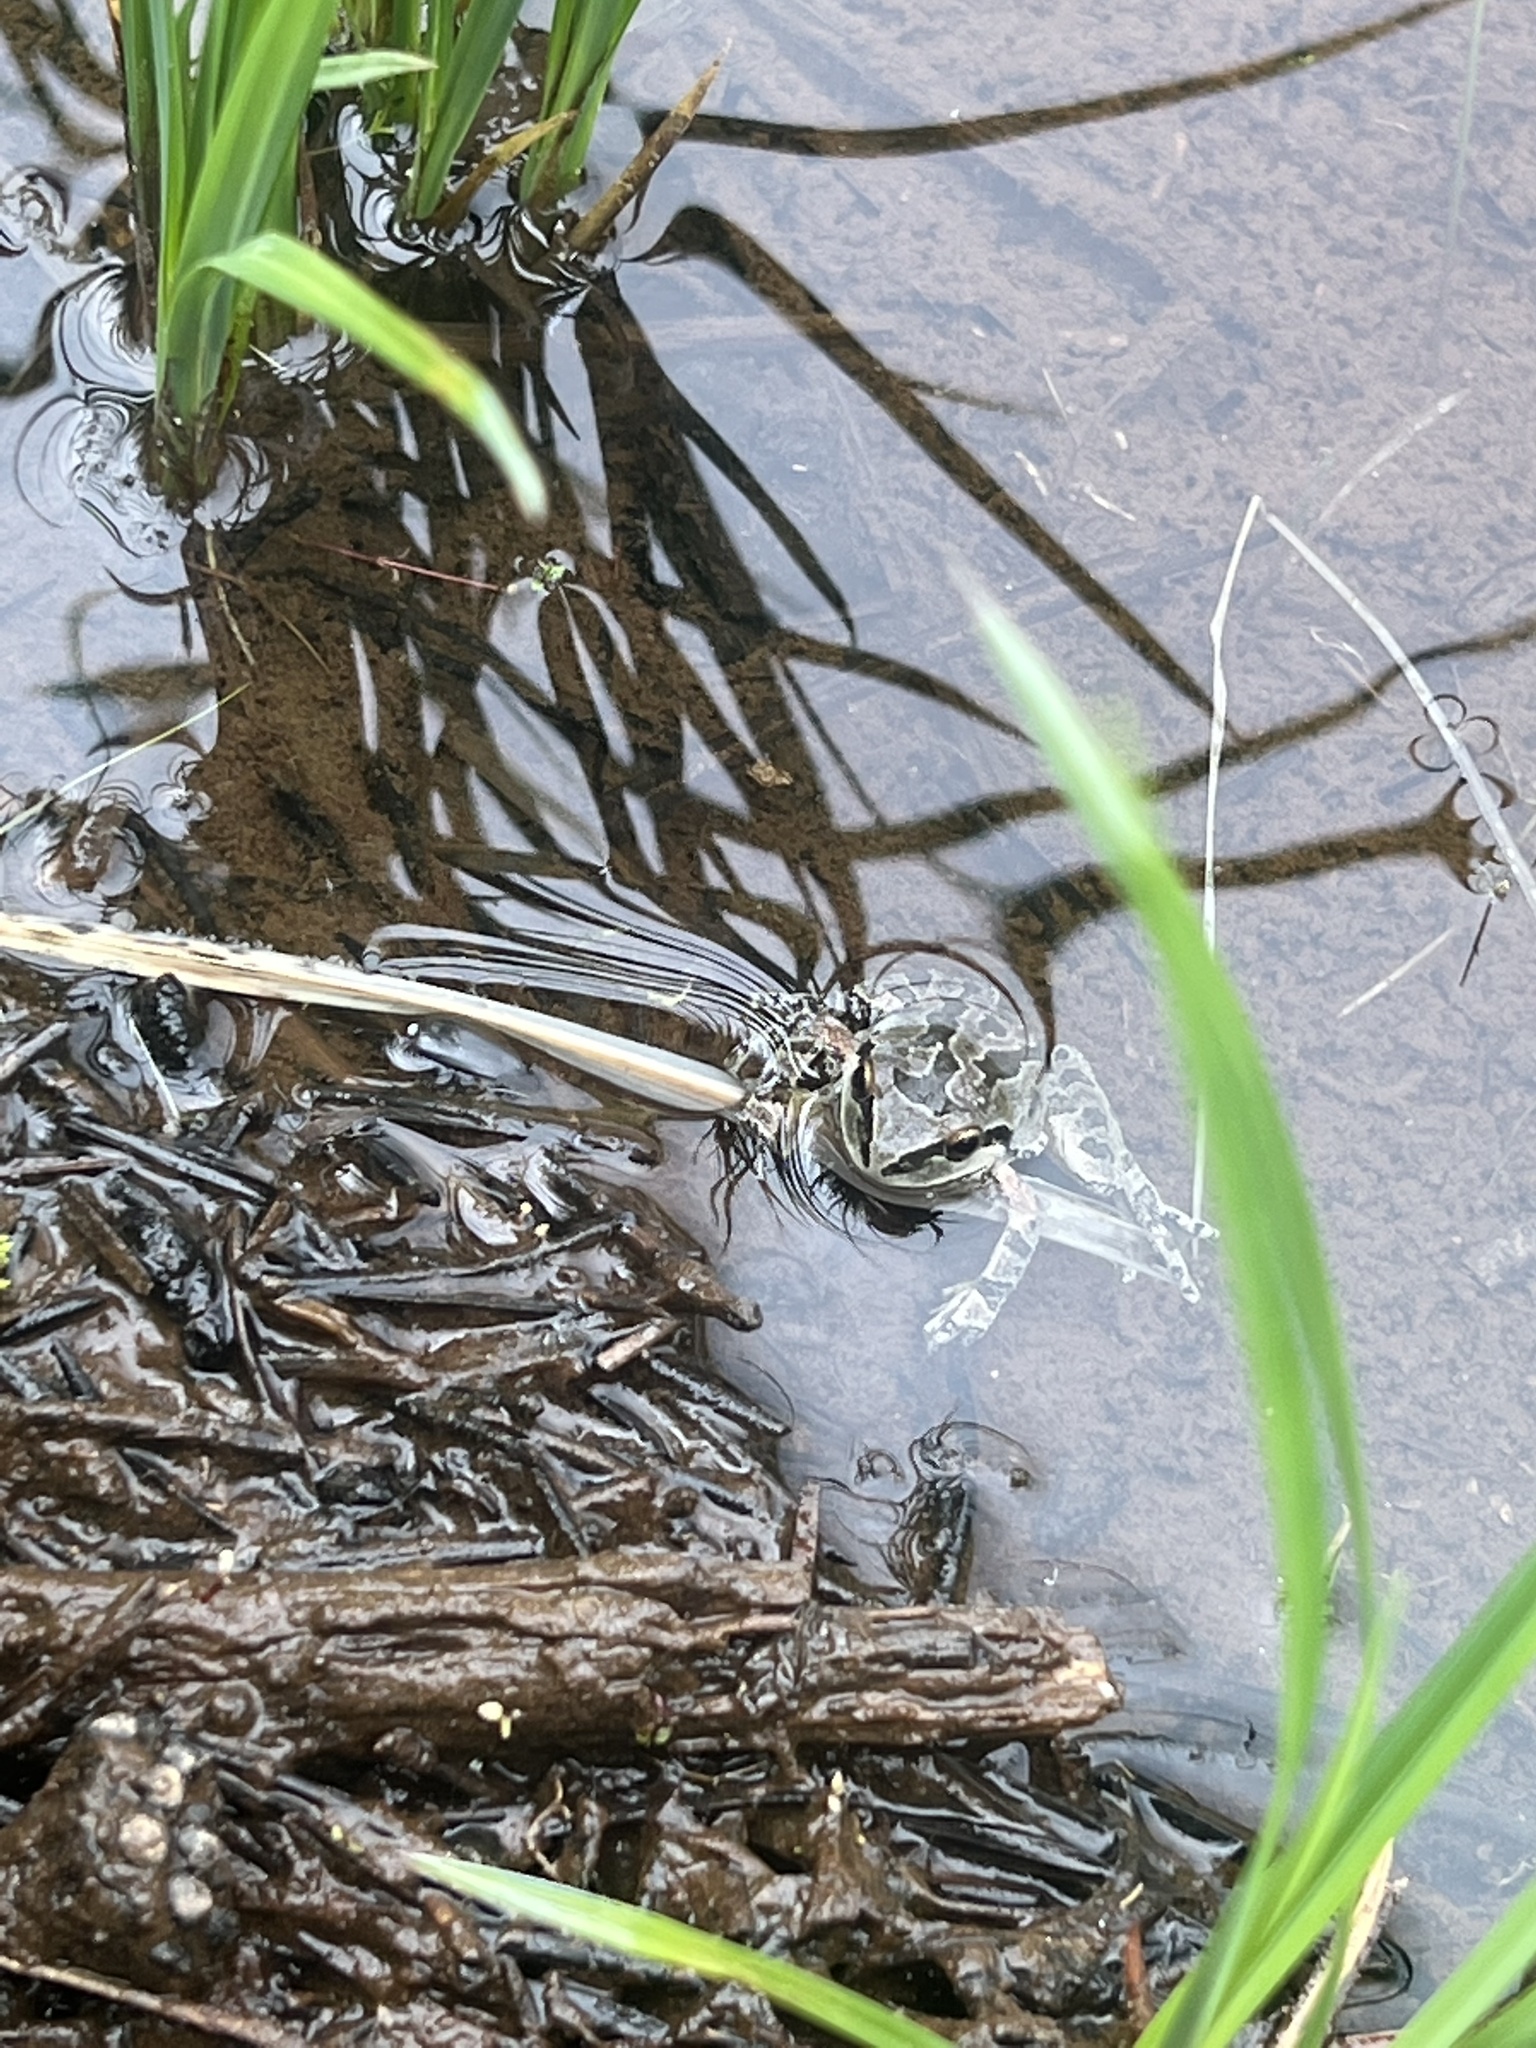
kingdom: Animalia
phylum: Chordata
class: Amphibia
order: Anura
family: Hylidae
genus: Pseudacris
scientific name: Pseudacris regilla
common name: Pacific chorus frog
